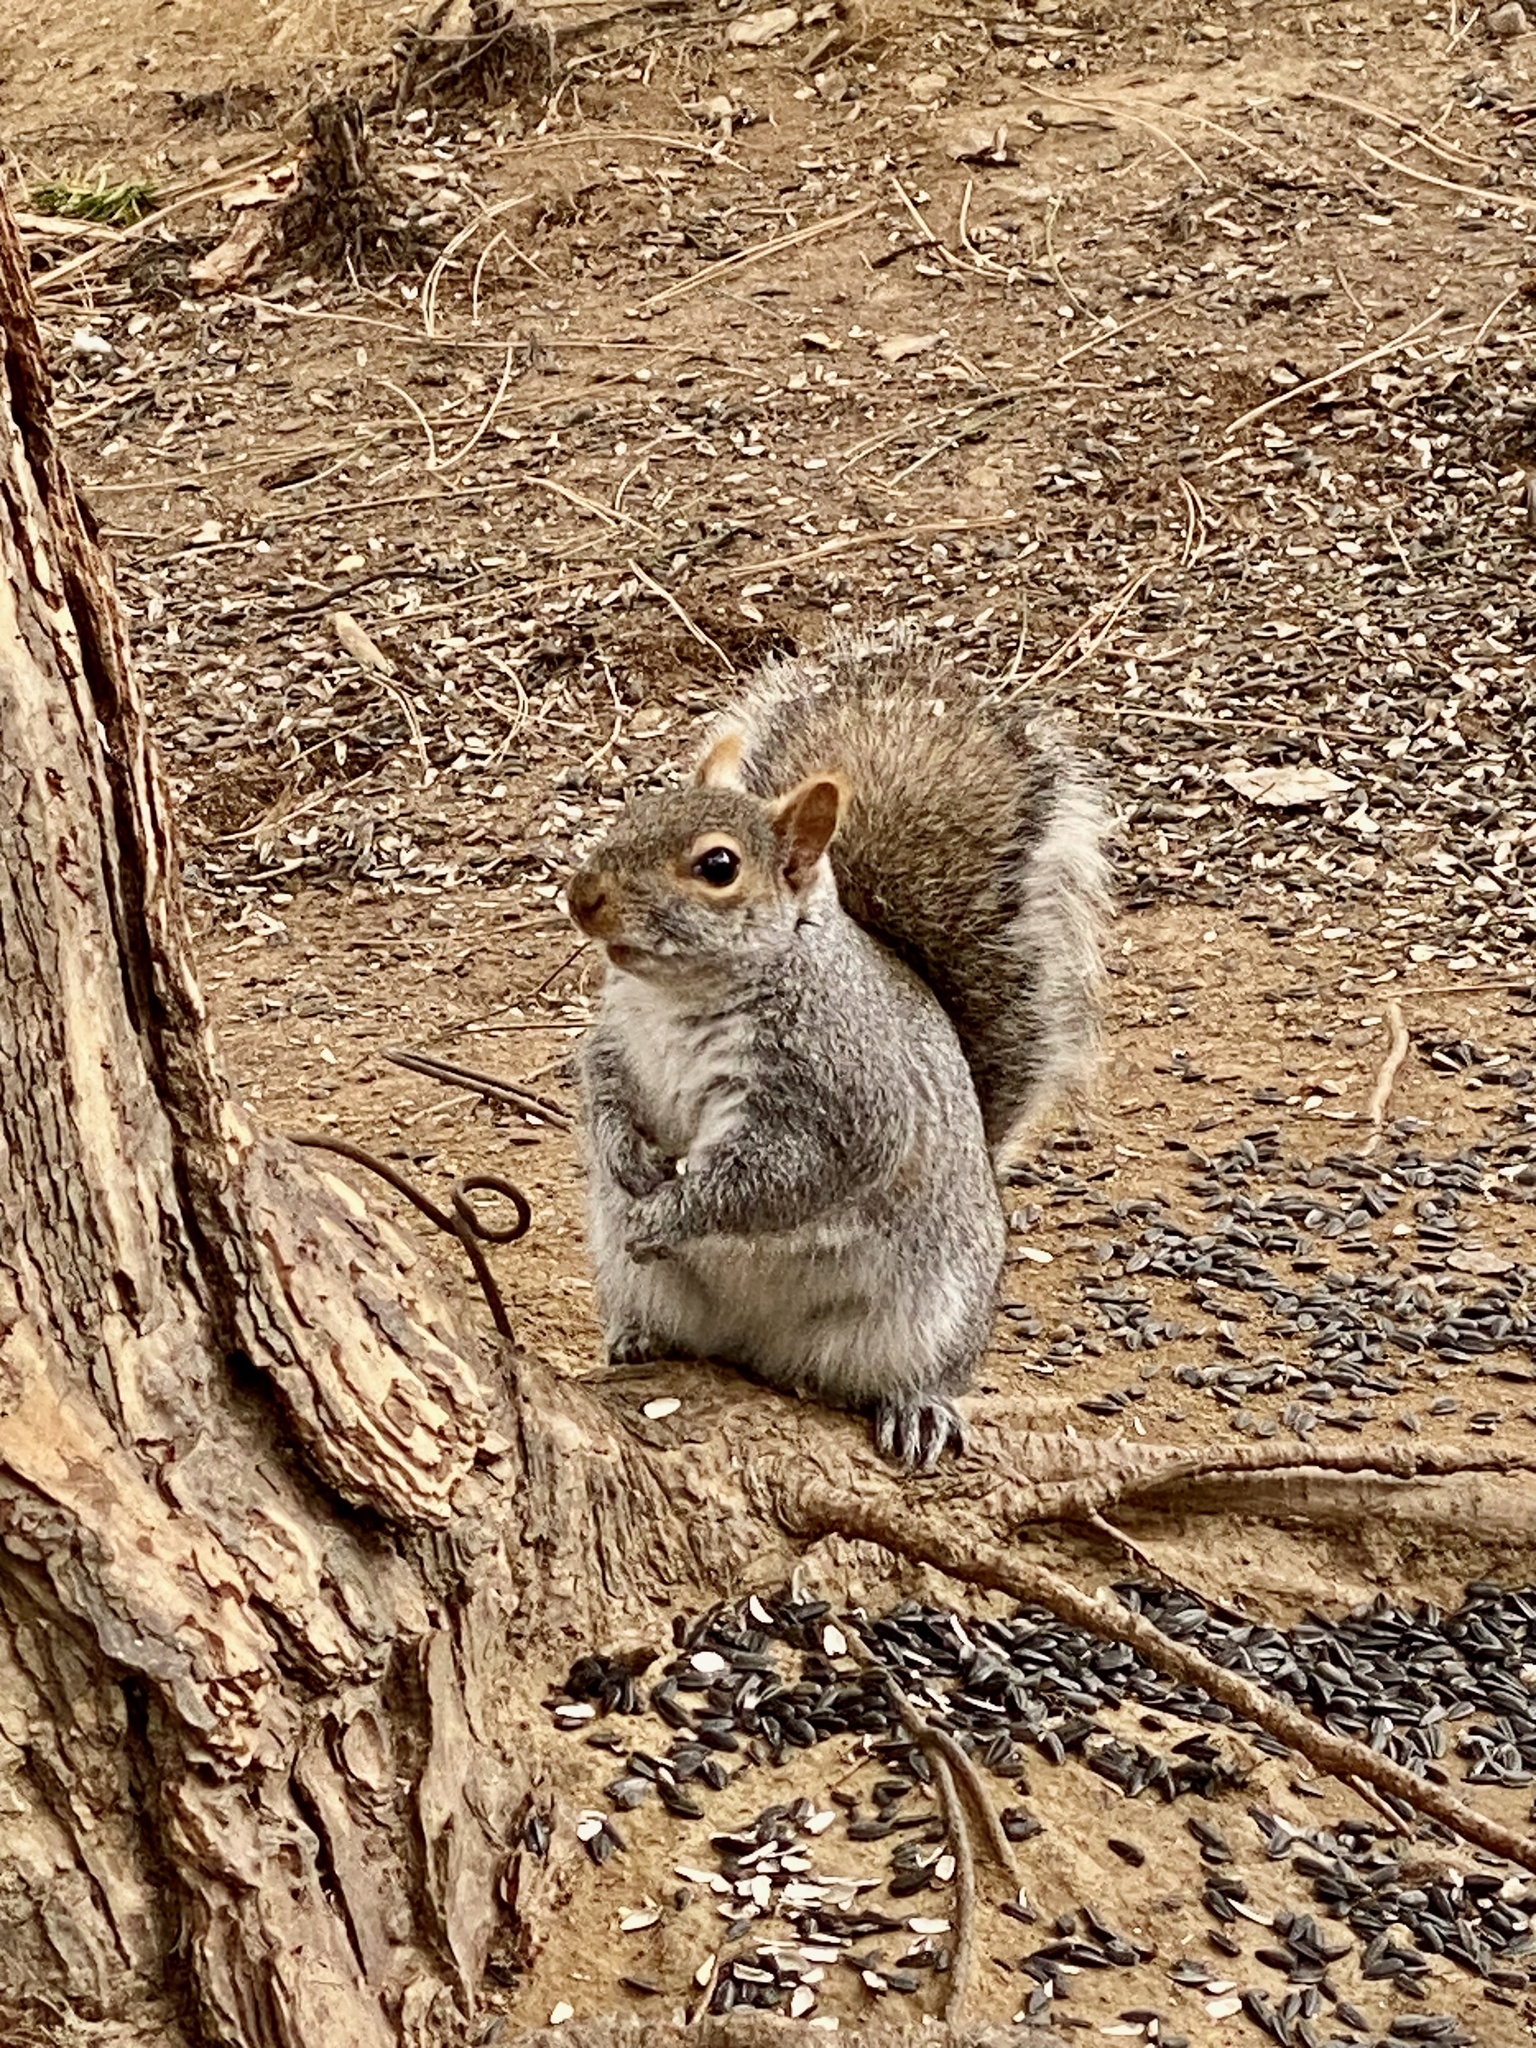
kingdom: Animalia
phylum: Chordata
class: Mammalia
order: Rodentia
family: Sciuridae
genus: Sciurus
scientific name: Sciurus carolinensis
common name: Eastern gray squirrel
